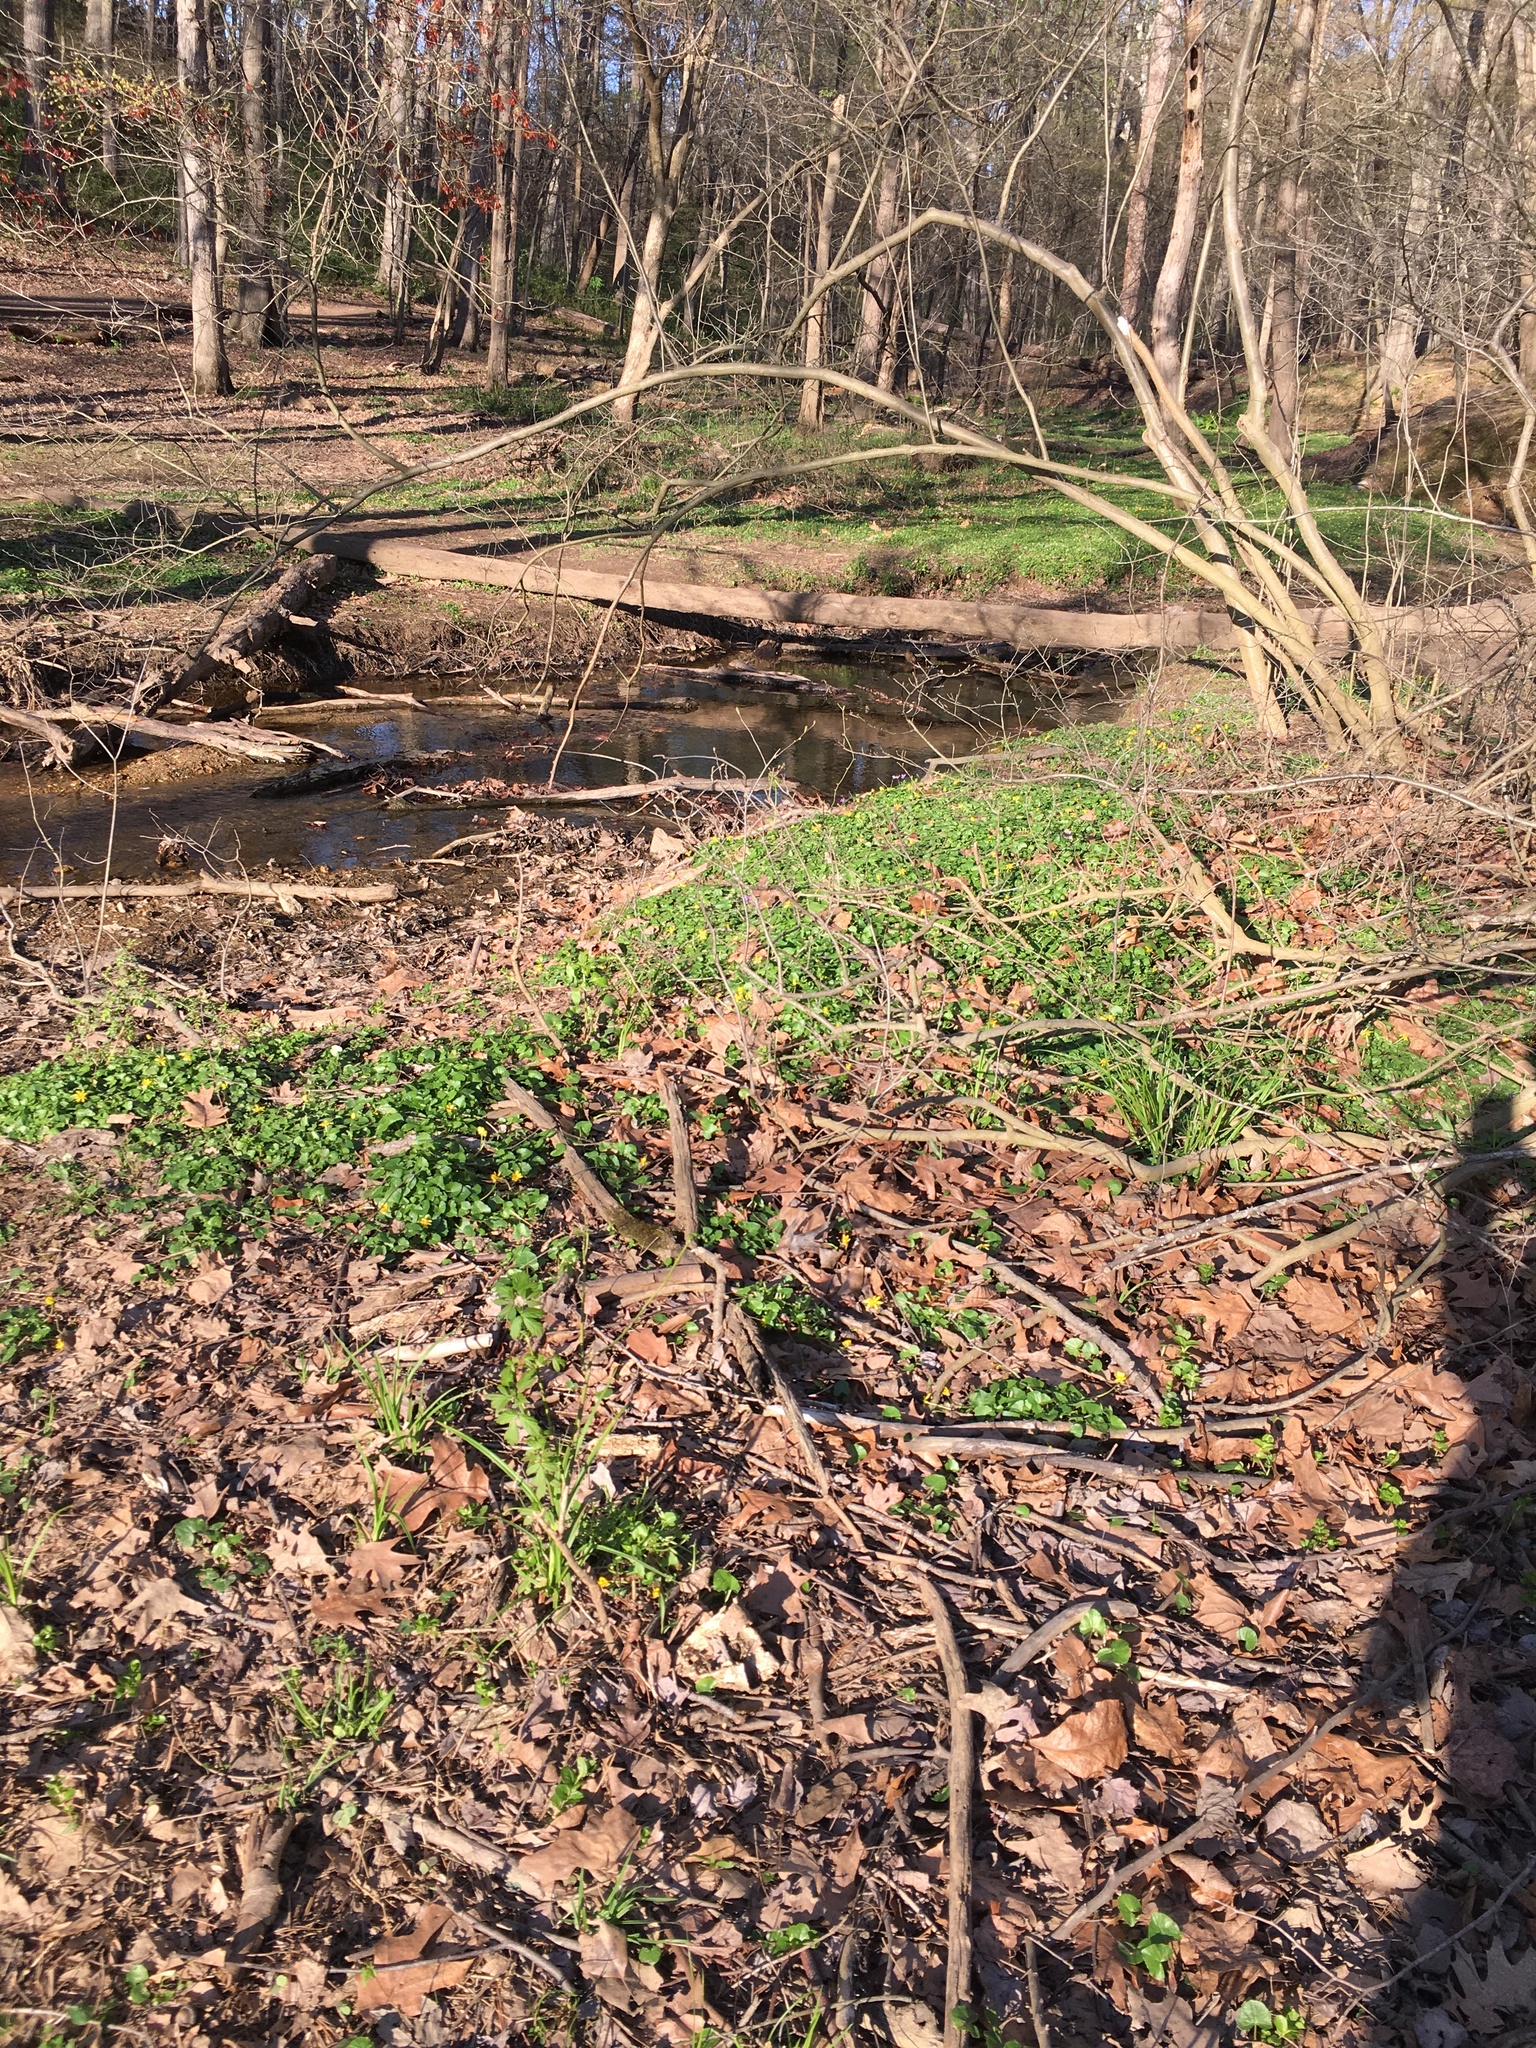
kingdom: Plantae
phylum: Tracheophyta
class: Magnoliopsida
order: Ranunculales
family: Ranunculaceae
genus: Ficaria
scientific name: Ficaria verna
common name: Lesser celandine
